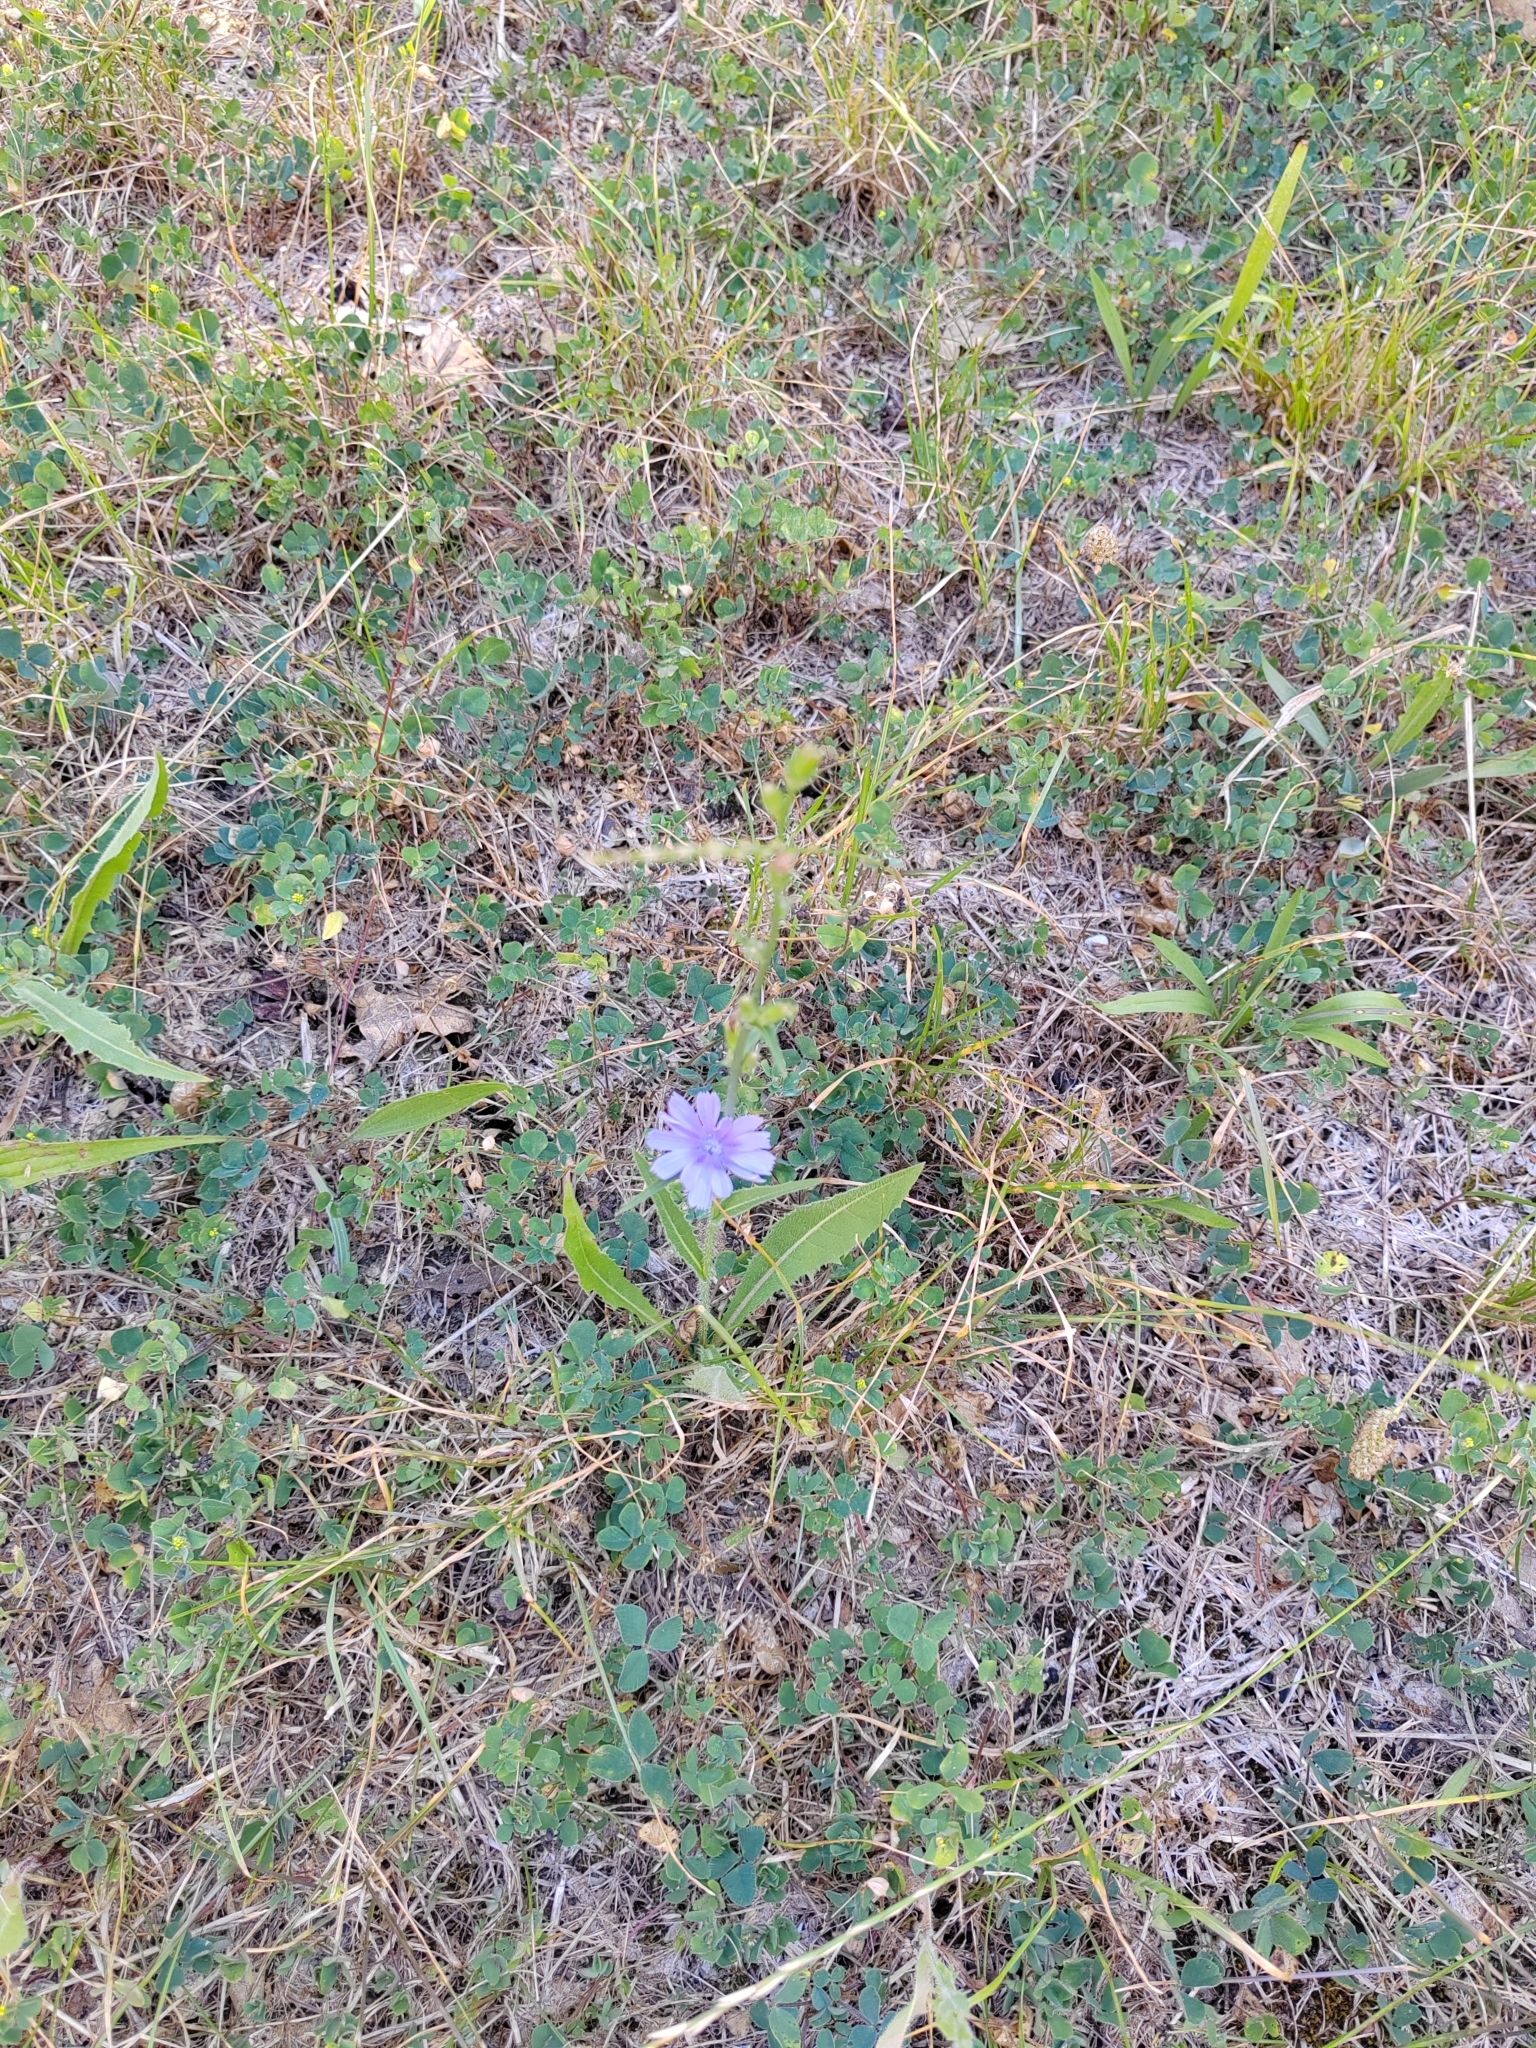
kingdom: Plantae
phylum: Tracheophyta
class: Magnoliopsida
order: Asterales
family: Asteraceae
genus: Cichorium
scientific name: Cichorium intybus
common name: Chicory
